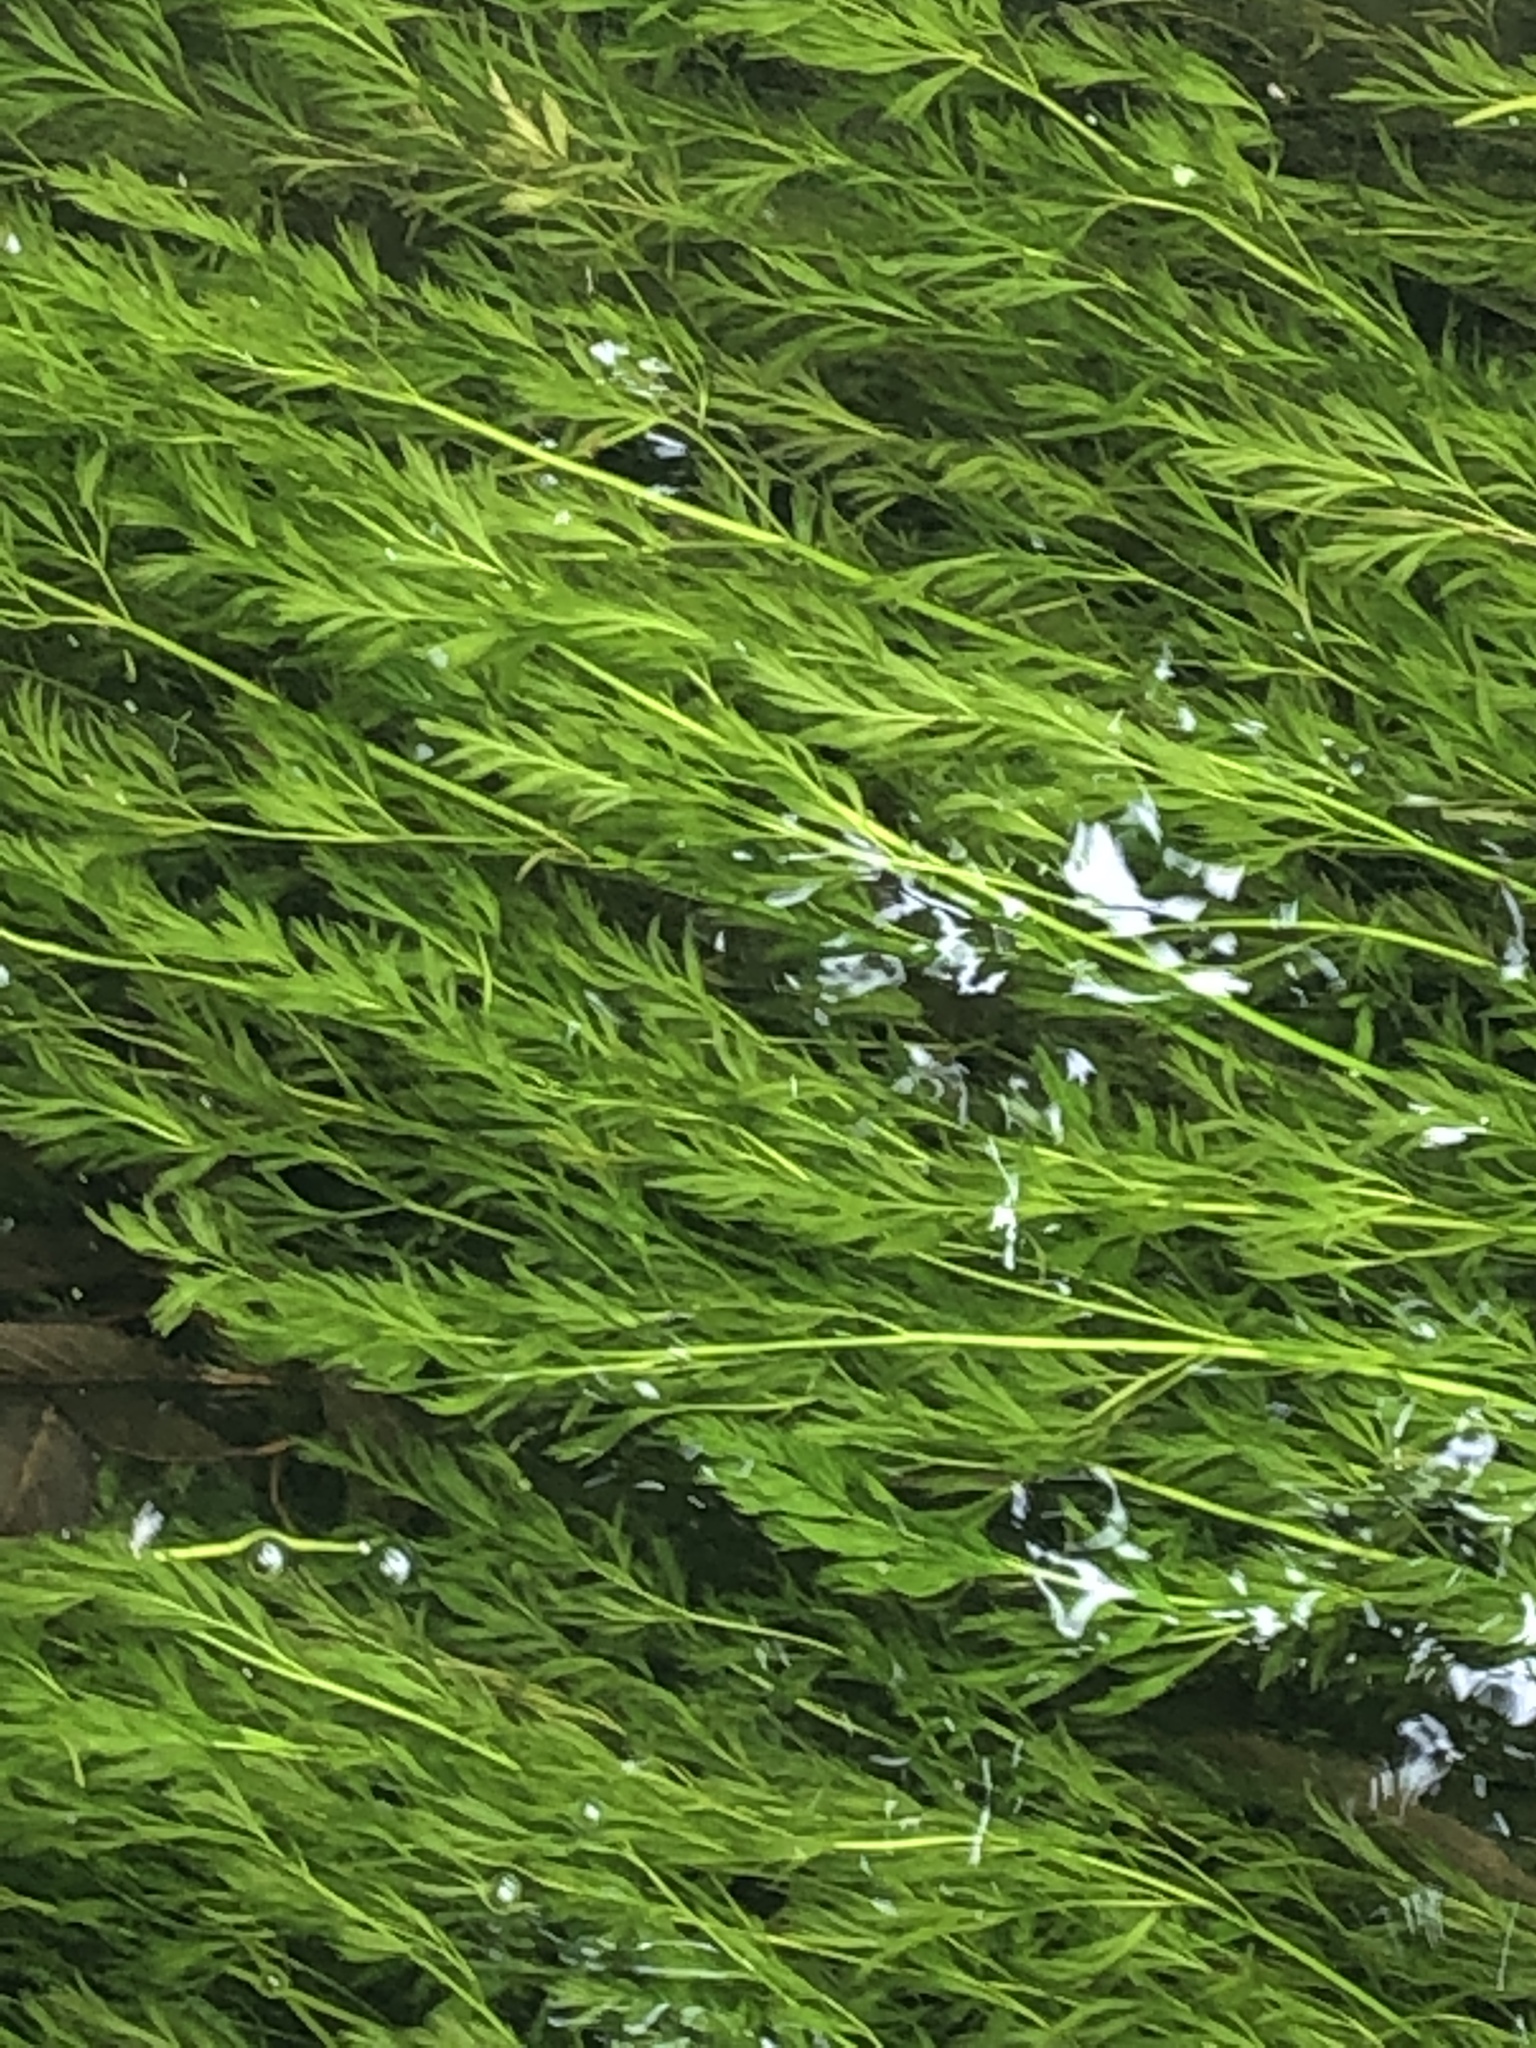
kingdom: Plantae
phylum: Tracheophyta
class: Magnoliopsida
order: Apiales
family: Apiaceae
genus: Oenanthe
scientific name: Oenanthe fluviatilis
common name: River water-dropwort
